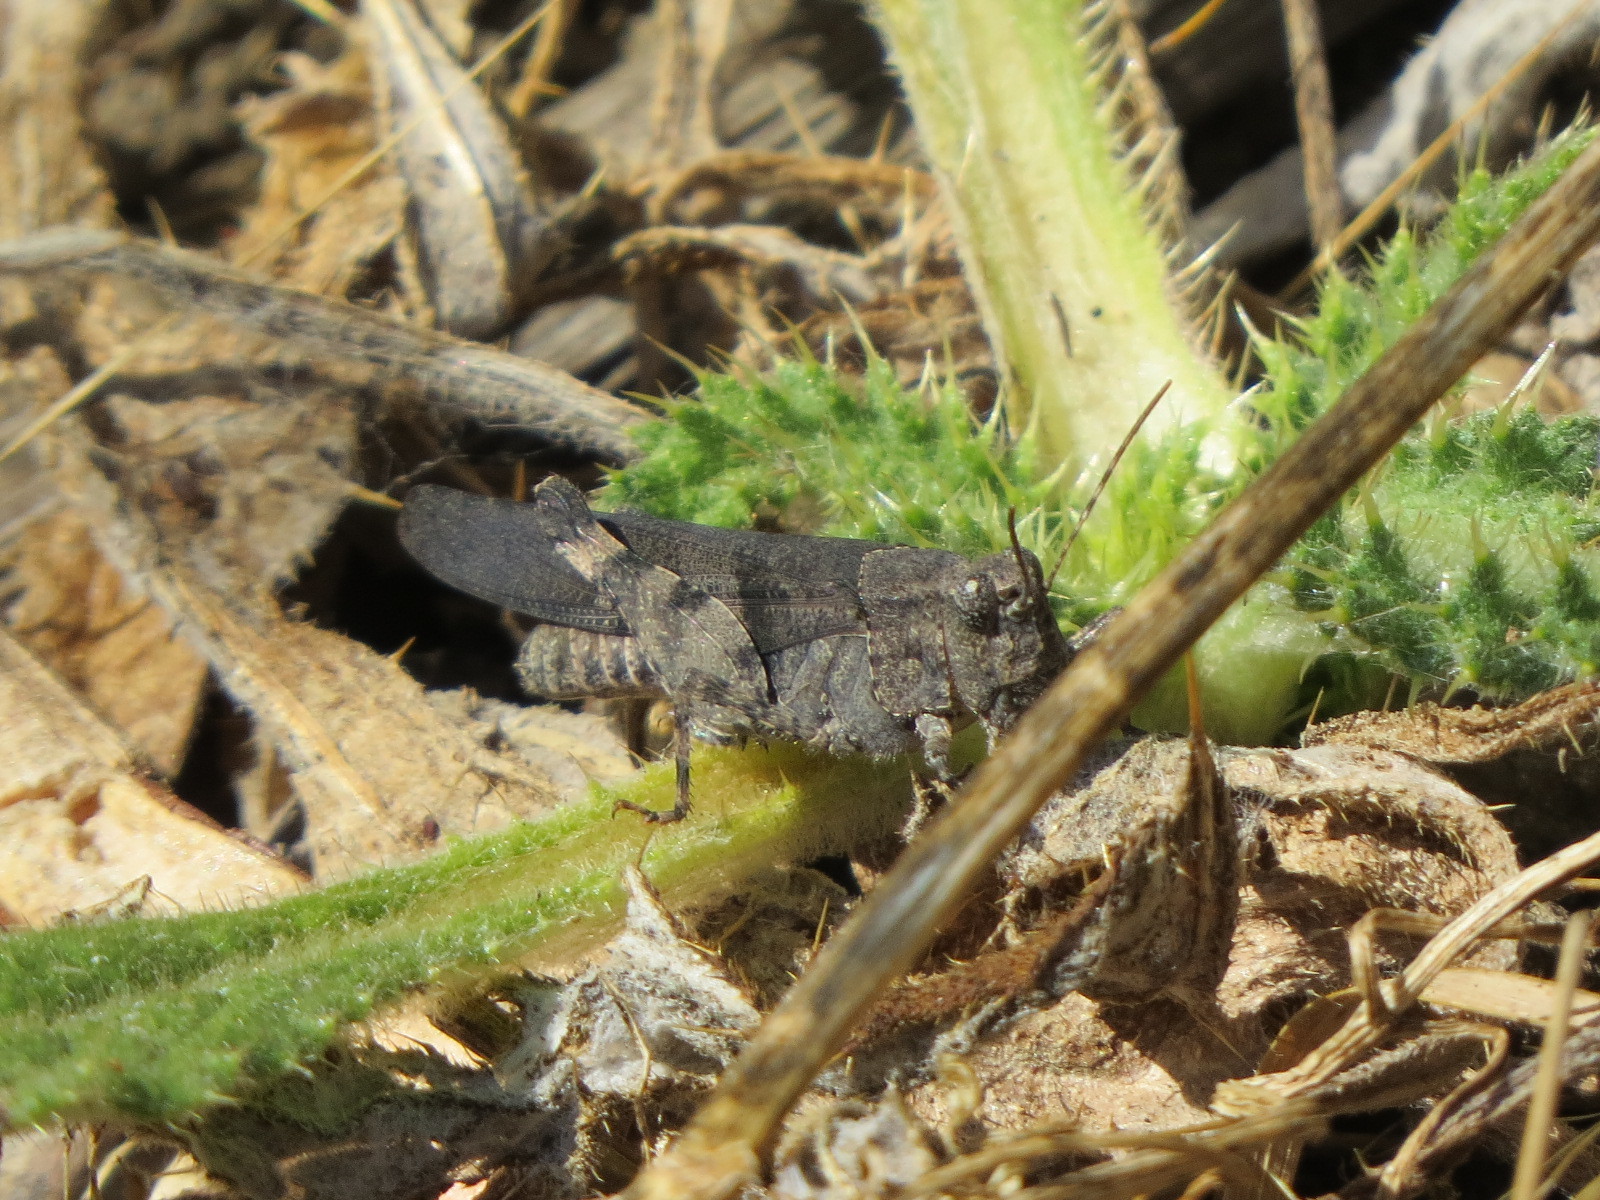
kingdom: Animalia
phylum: Arthropoda
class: Insecta
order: Orthoptera
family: Acrididae
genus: Trimerotropis
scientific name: Trimerotropis fontana
